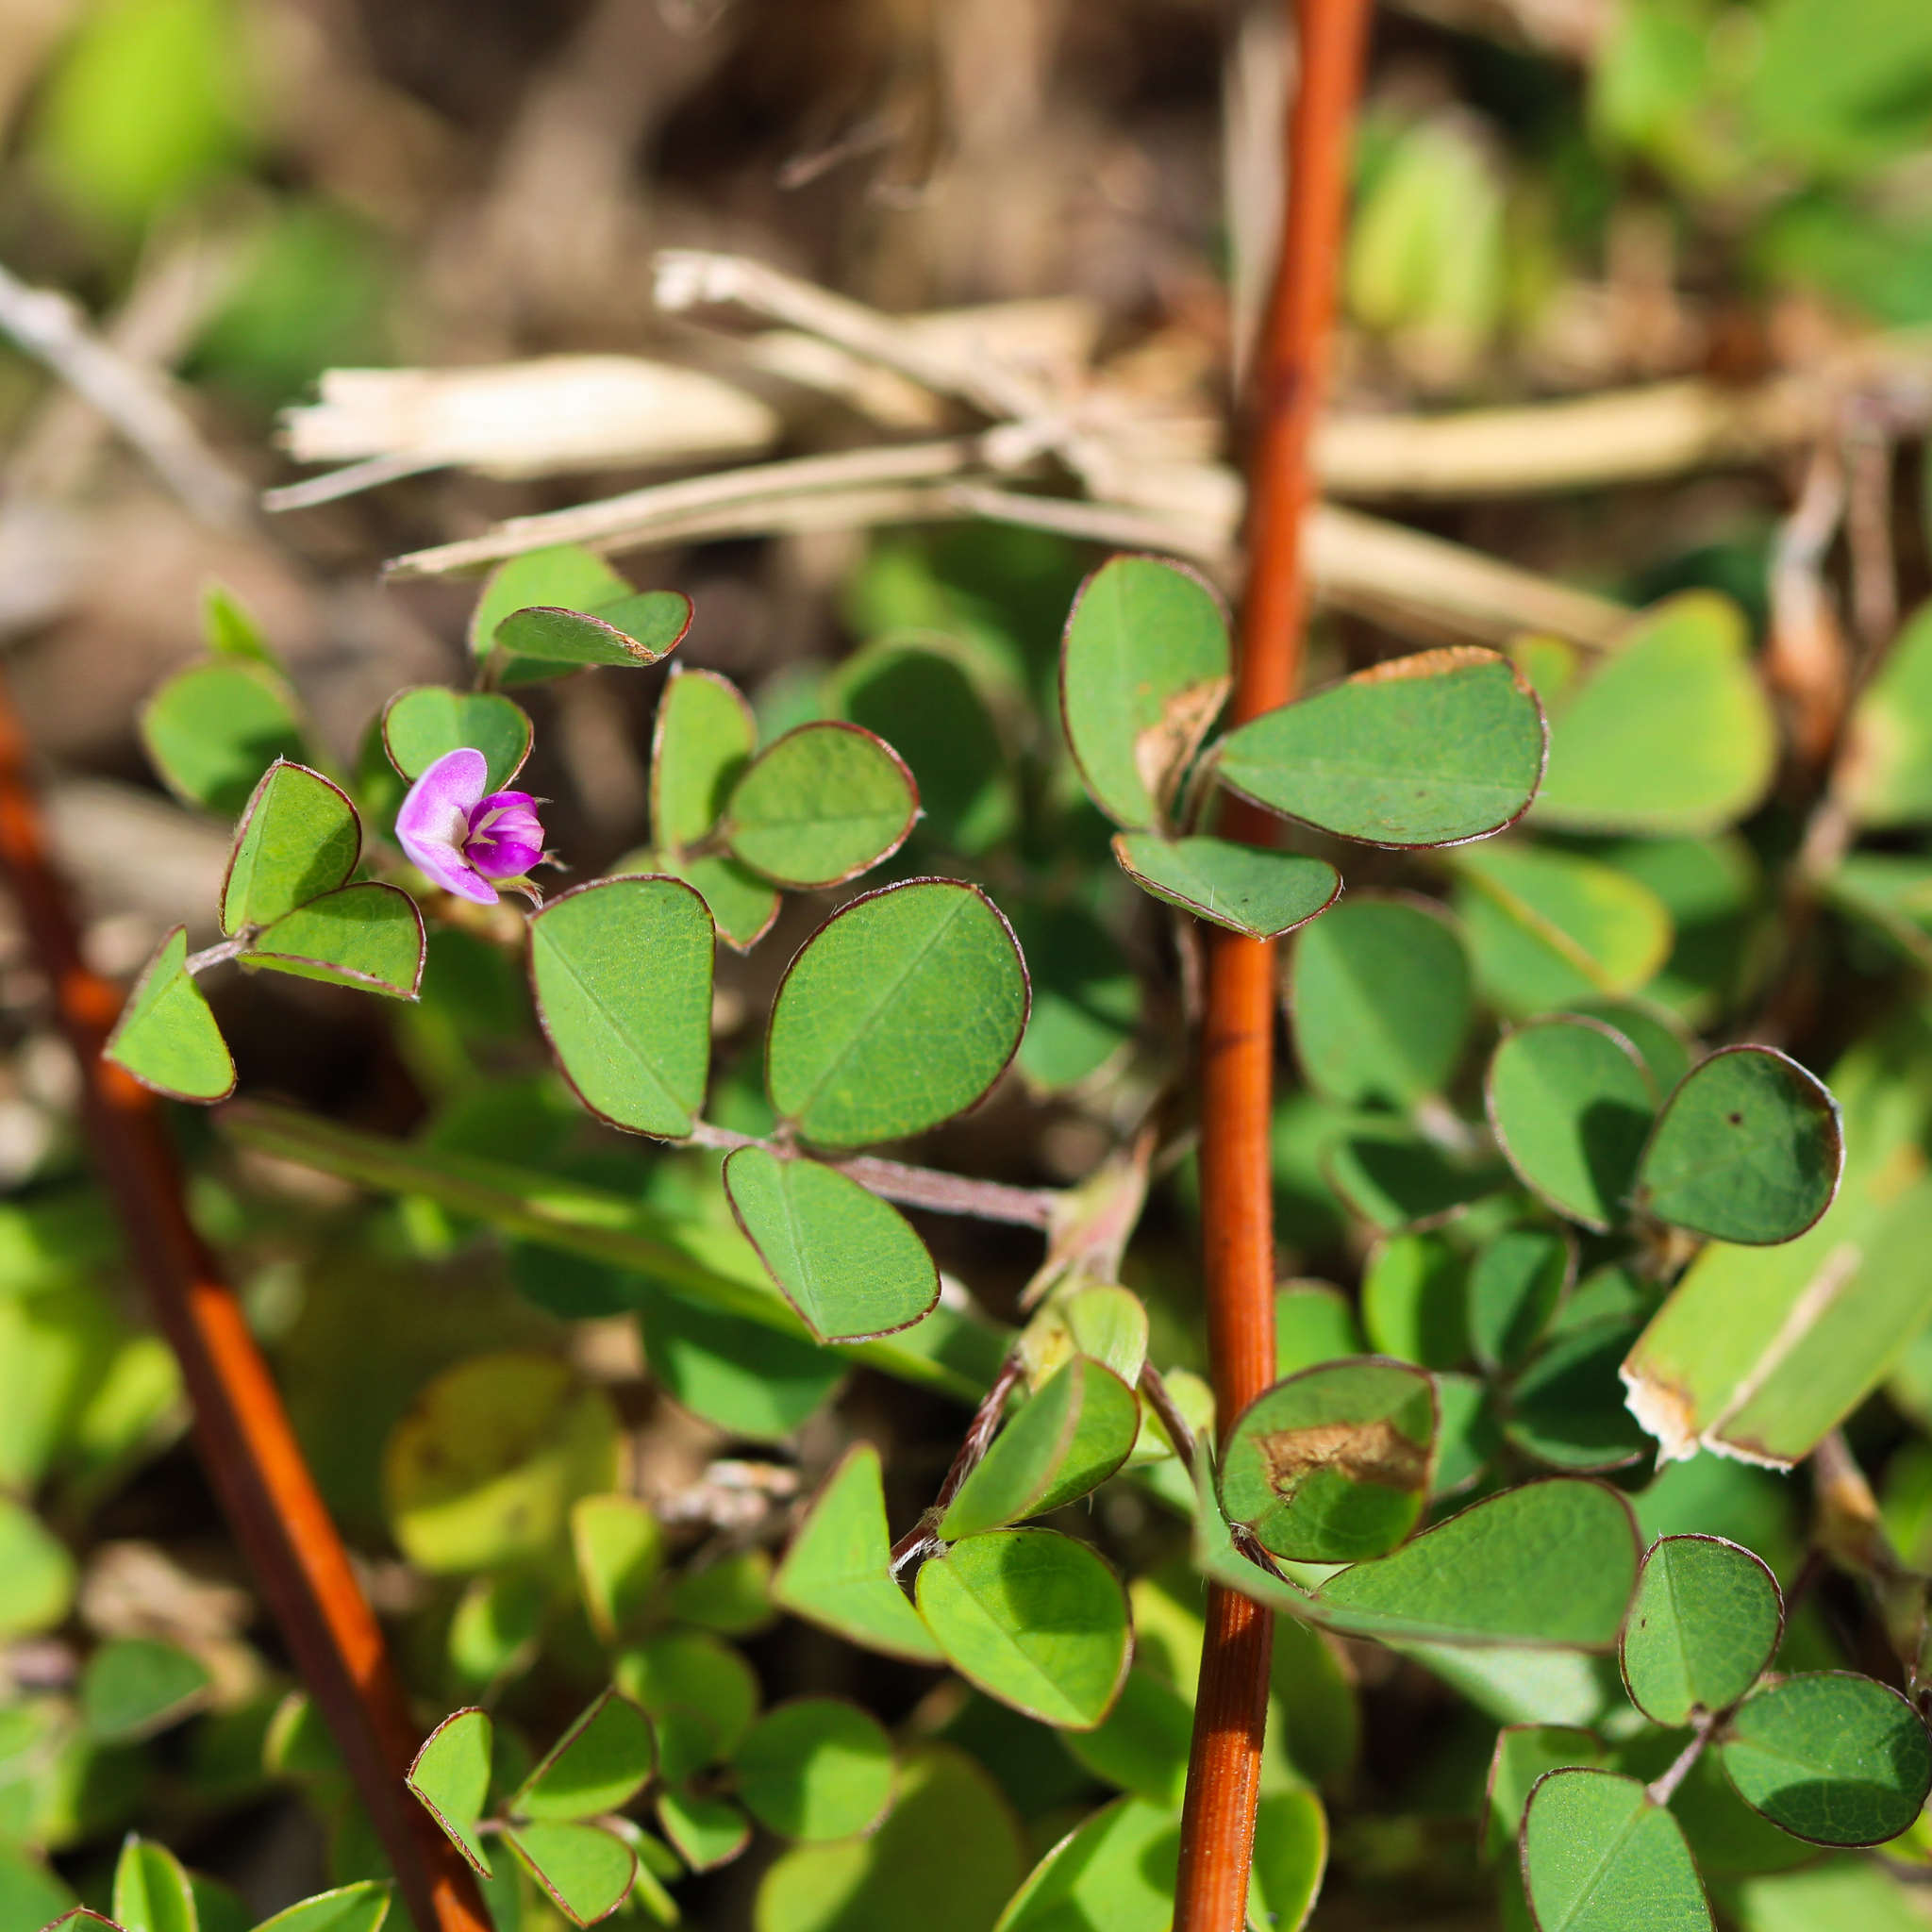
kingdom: Plantae
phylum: Tracheophyta
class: Magnoliopsida
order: Fabales
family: Fabaceae
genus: Grona
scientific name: Grona triflora
